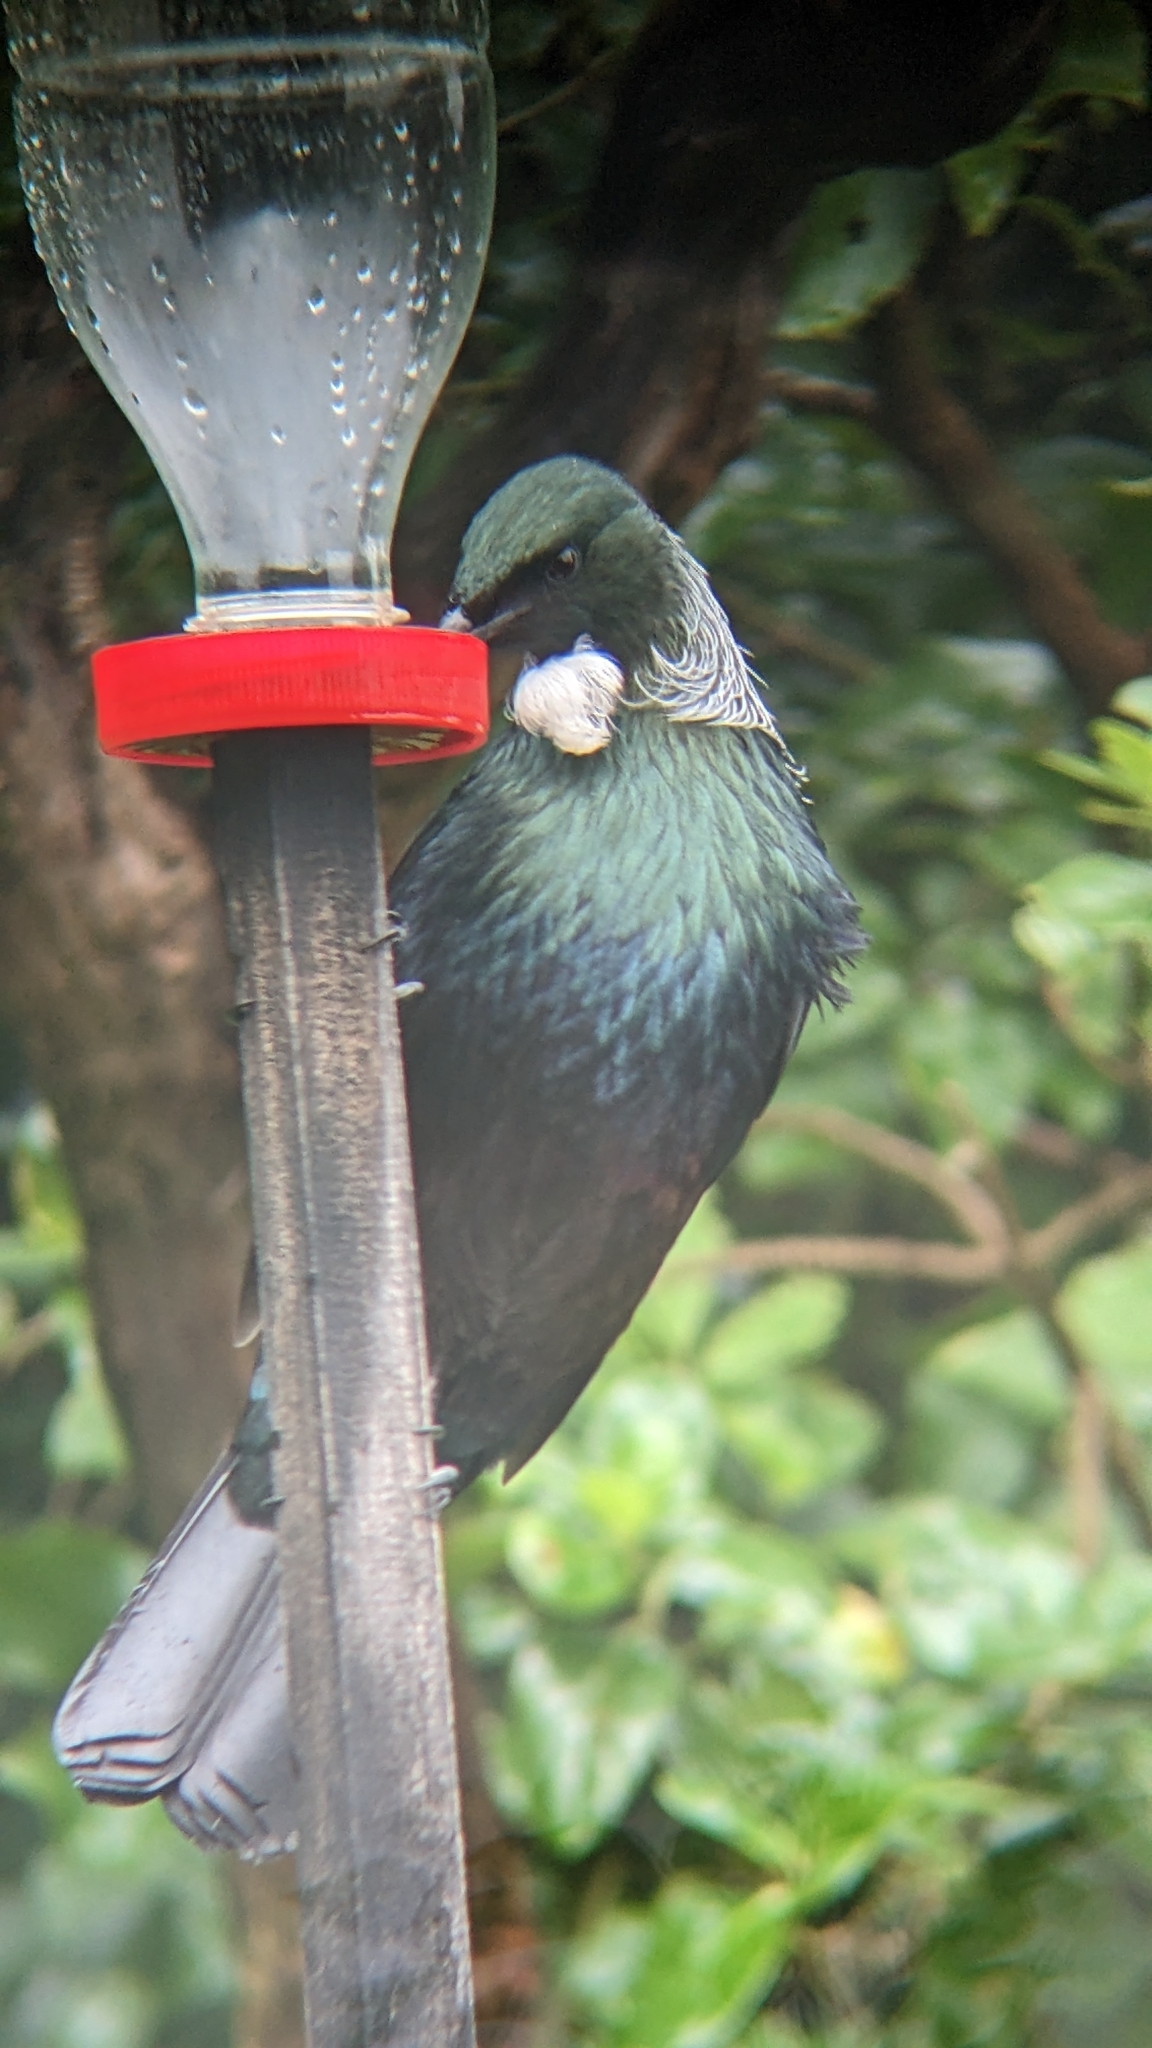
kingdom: Animalia
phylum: Chordata
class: Aves
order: Passeriformes
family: Meliphagidae
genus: Prosthemadera
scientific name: Prosthemadera novaeseelandiae
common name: Tui
